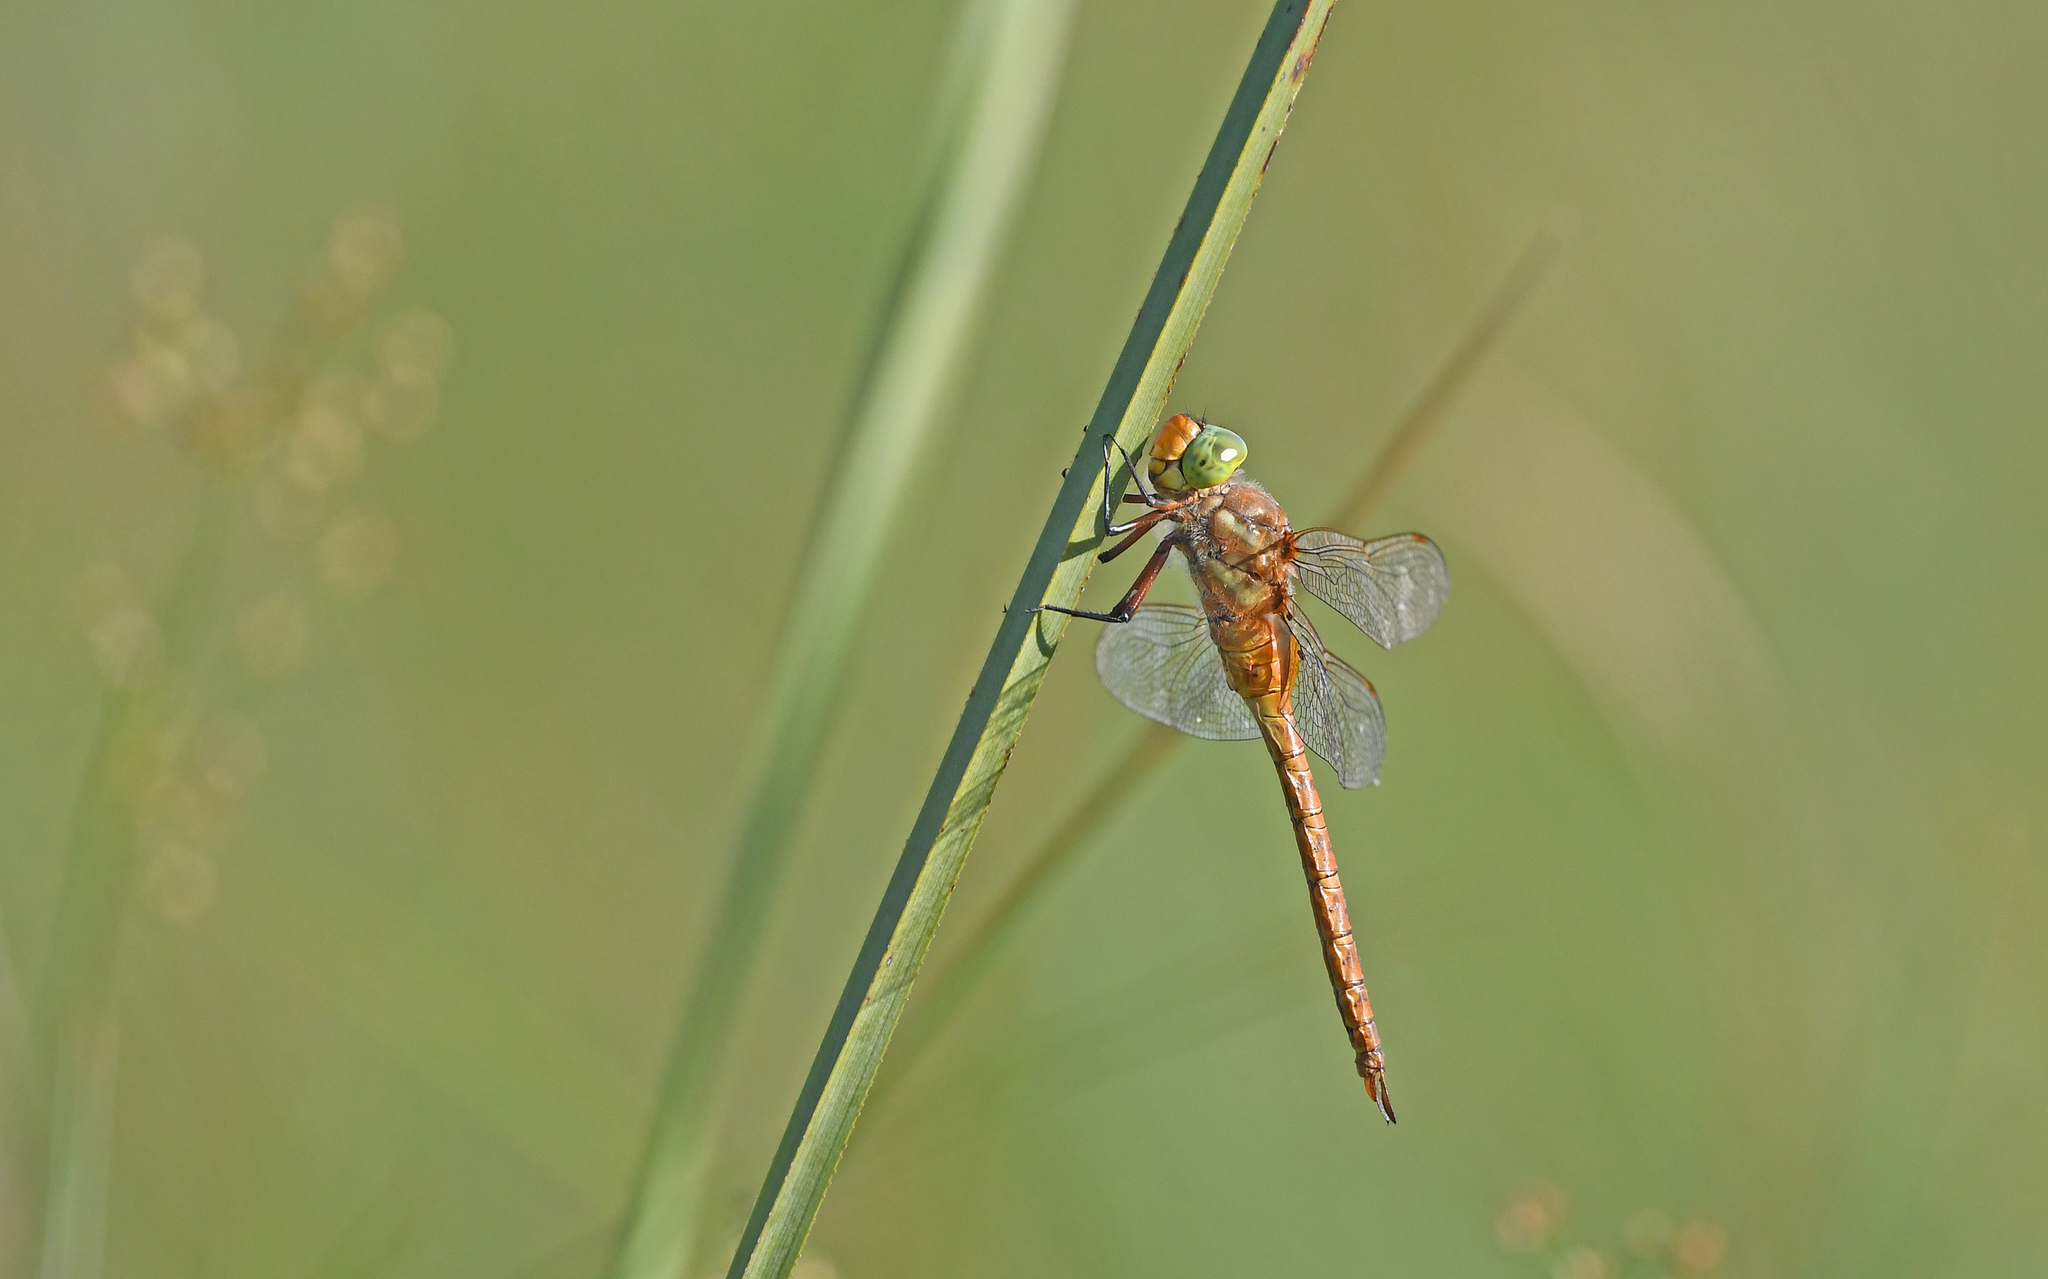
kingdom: Animalia
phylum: Arthropoda
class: Insecta
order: Odonata
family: Aeshnidae
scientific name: Aeshnidae
